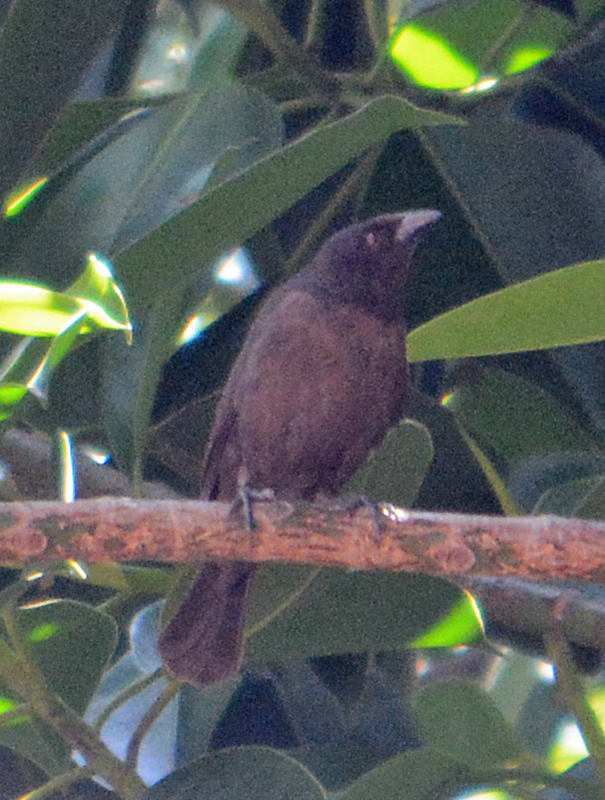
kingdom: Animalia
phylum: Chordata
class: Aves
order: Passeriformes
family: Icteridae
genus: Molothrus
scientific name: Molothrus aeneus
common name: Bronzed cowbird
